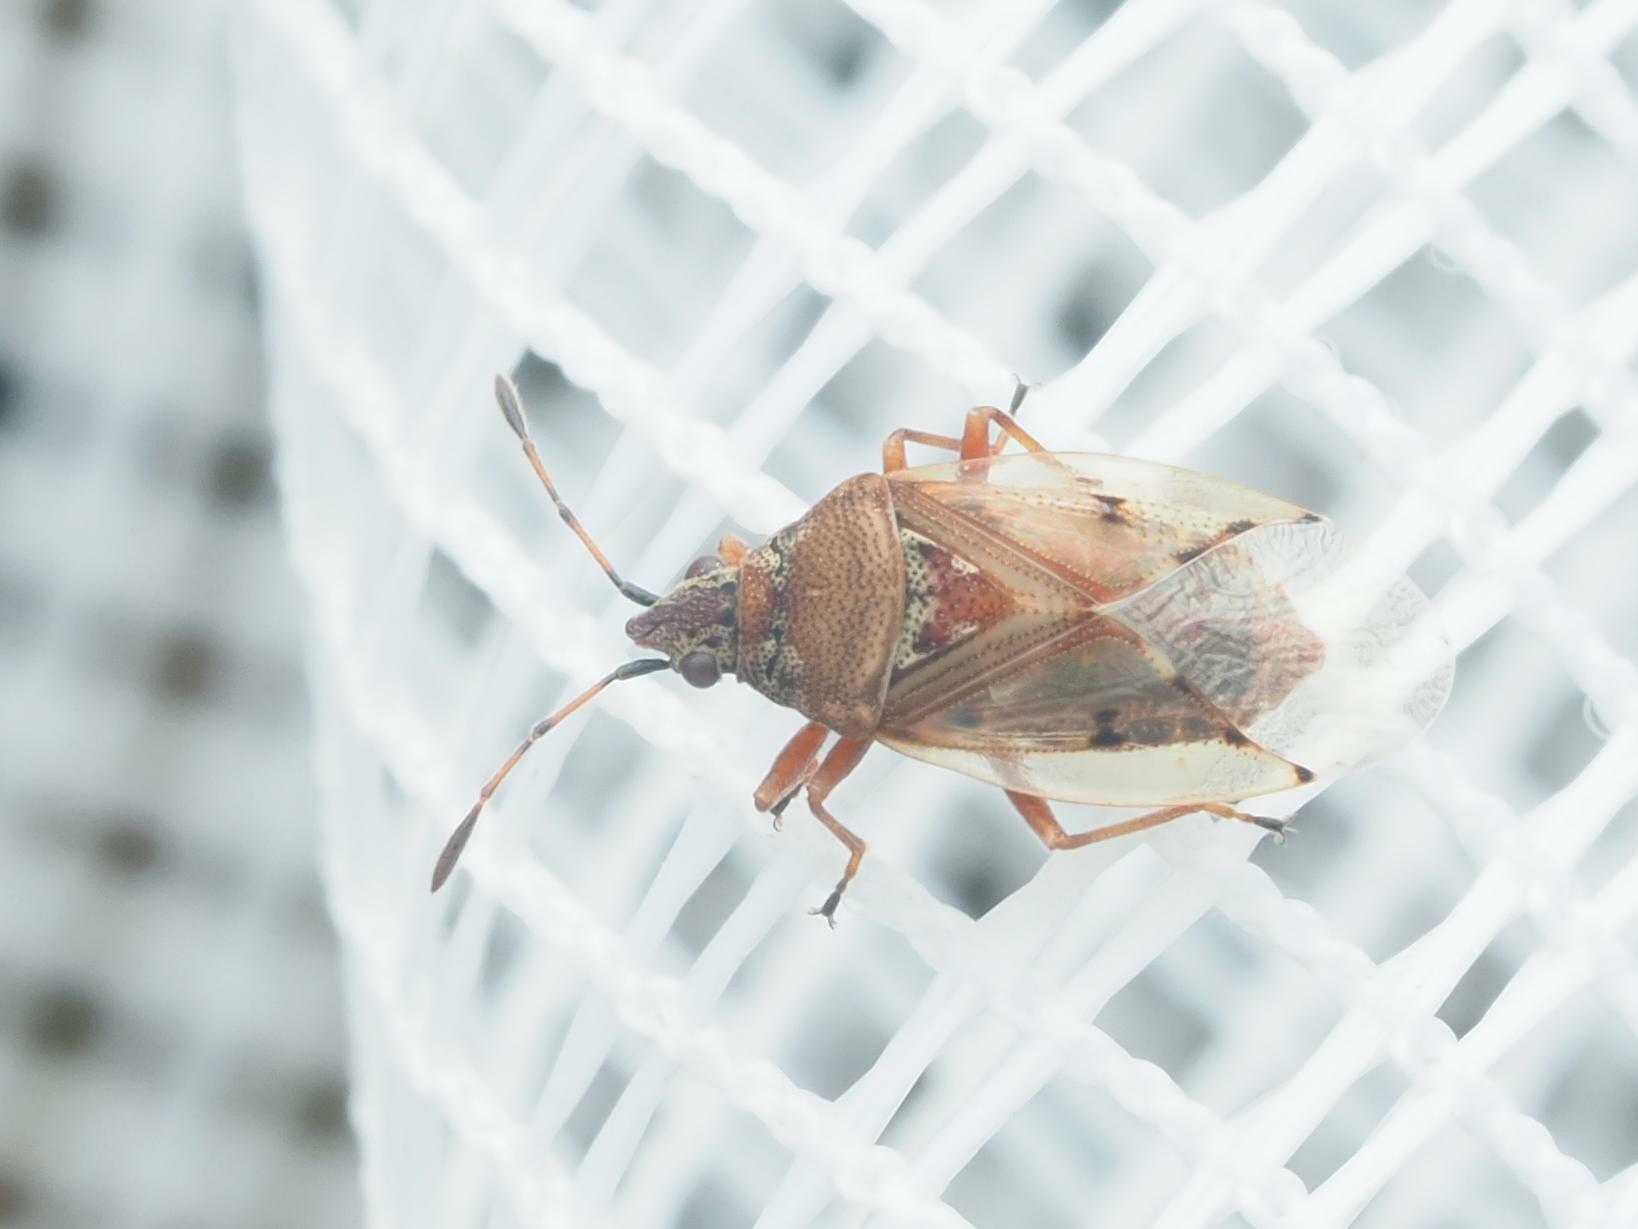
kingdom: Animalia
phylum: Arthropoda
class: Insecta
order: Hemiptera
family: Lygaeidae
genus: Kleidocerys
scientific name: Kleidocerys resedae
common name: Birch catkin bug
